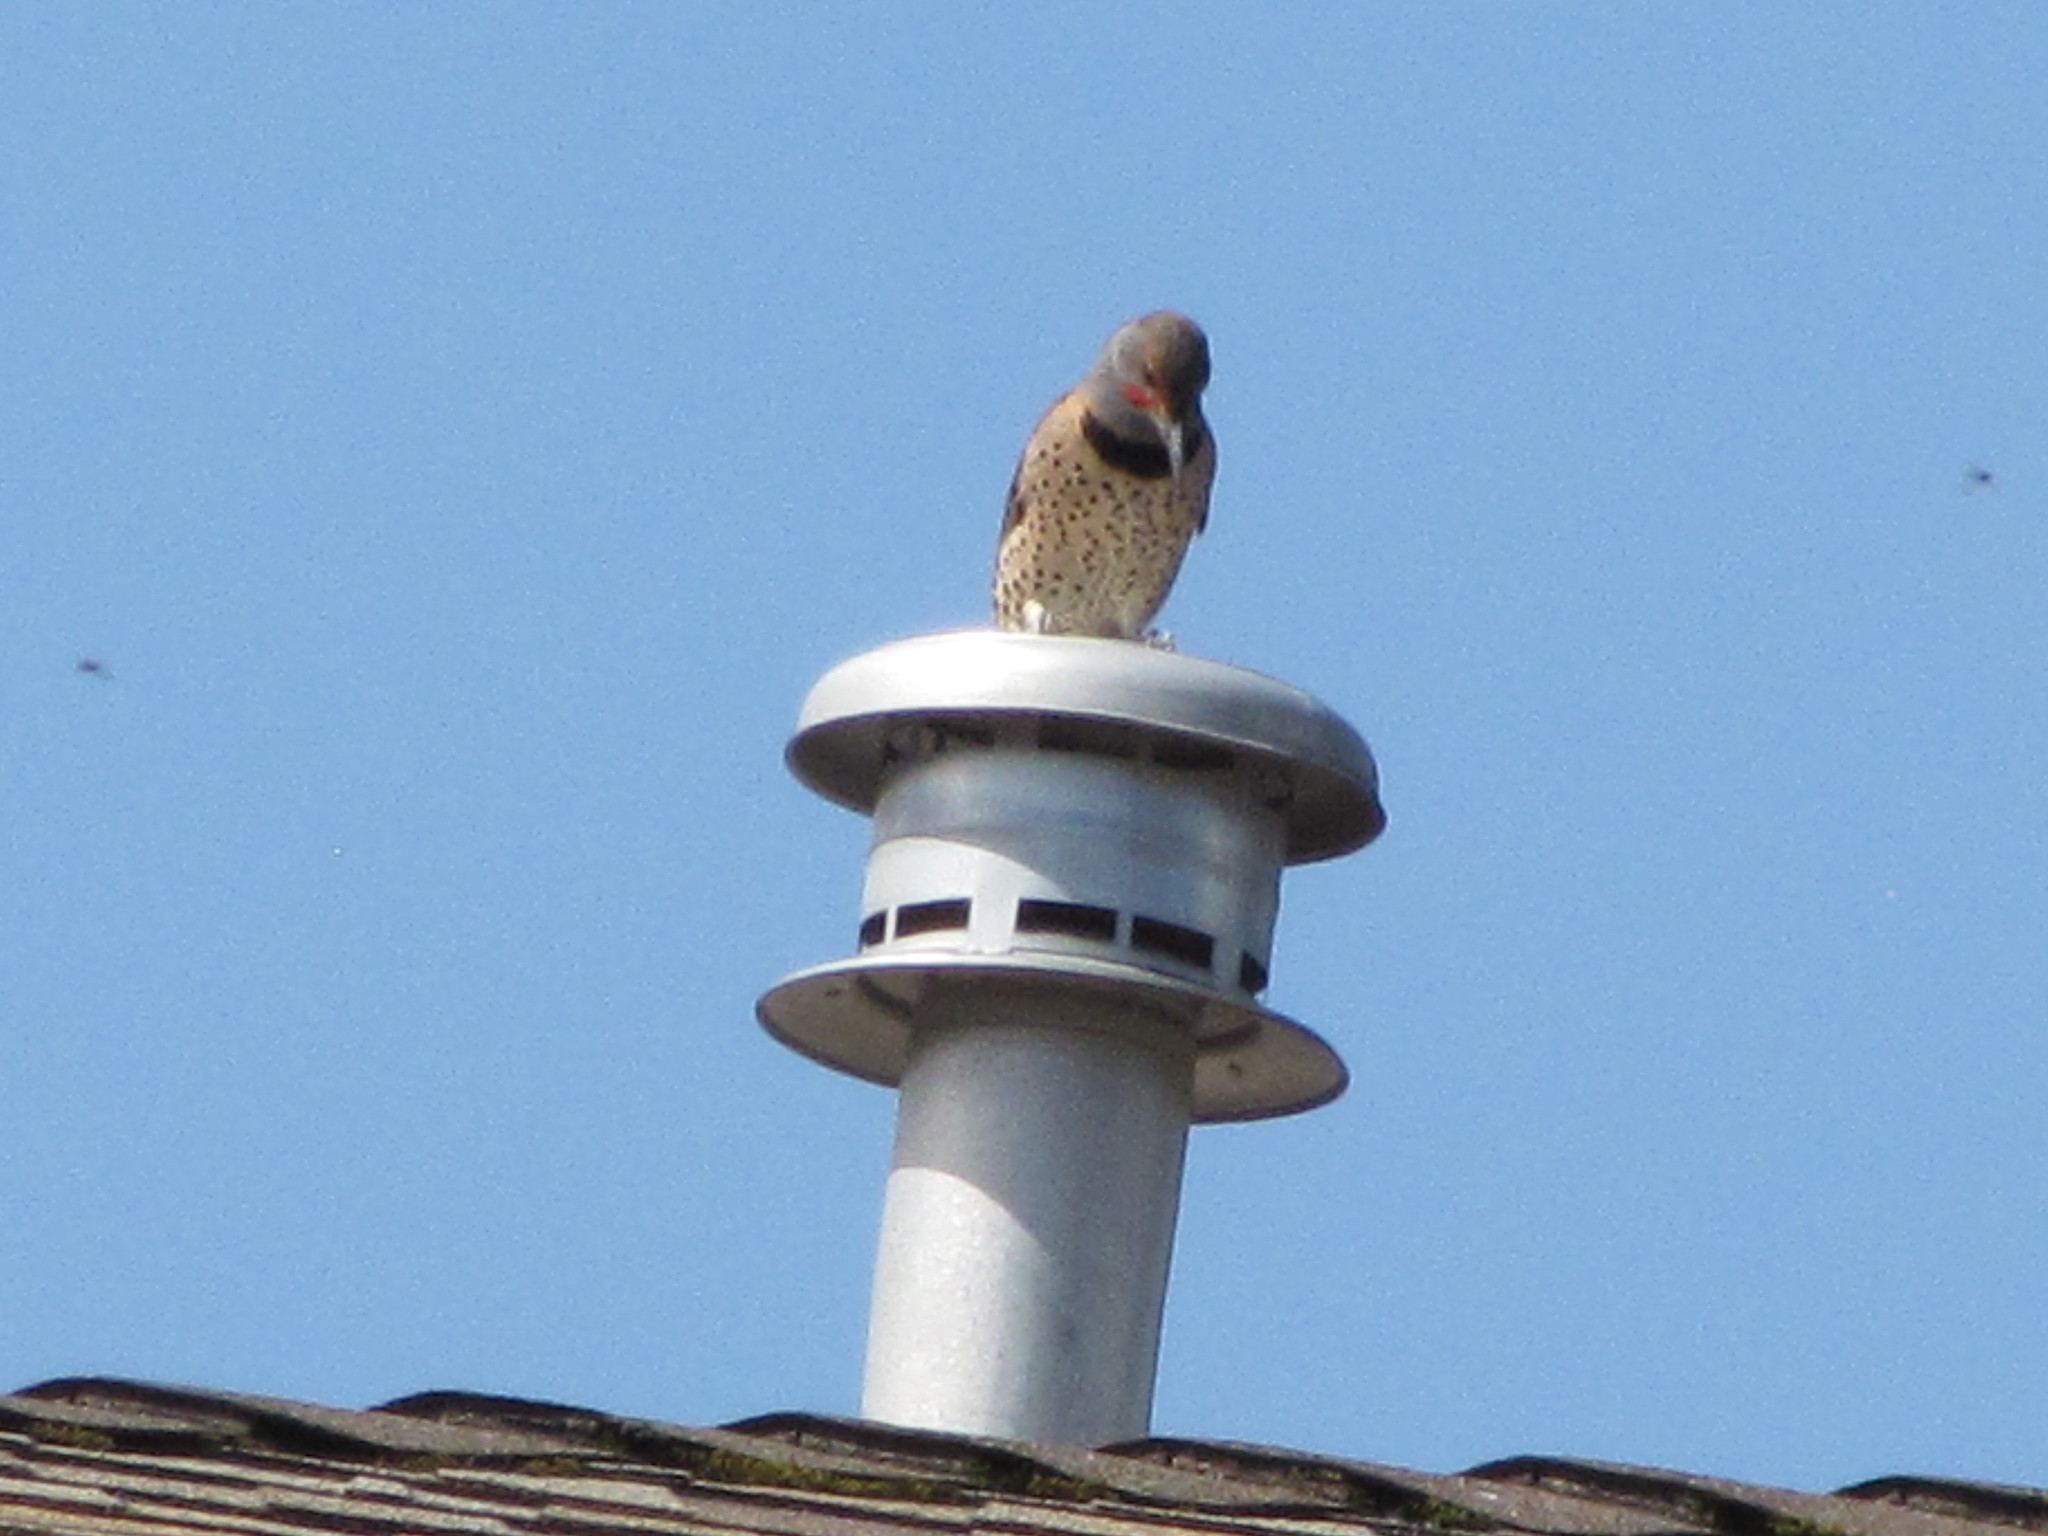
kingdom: Animalia
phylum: Chordata
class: Aves
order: Piciformes
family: Picidae
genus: Colaptes
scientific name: Colaptes auratus
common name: Northern flicker
